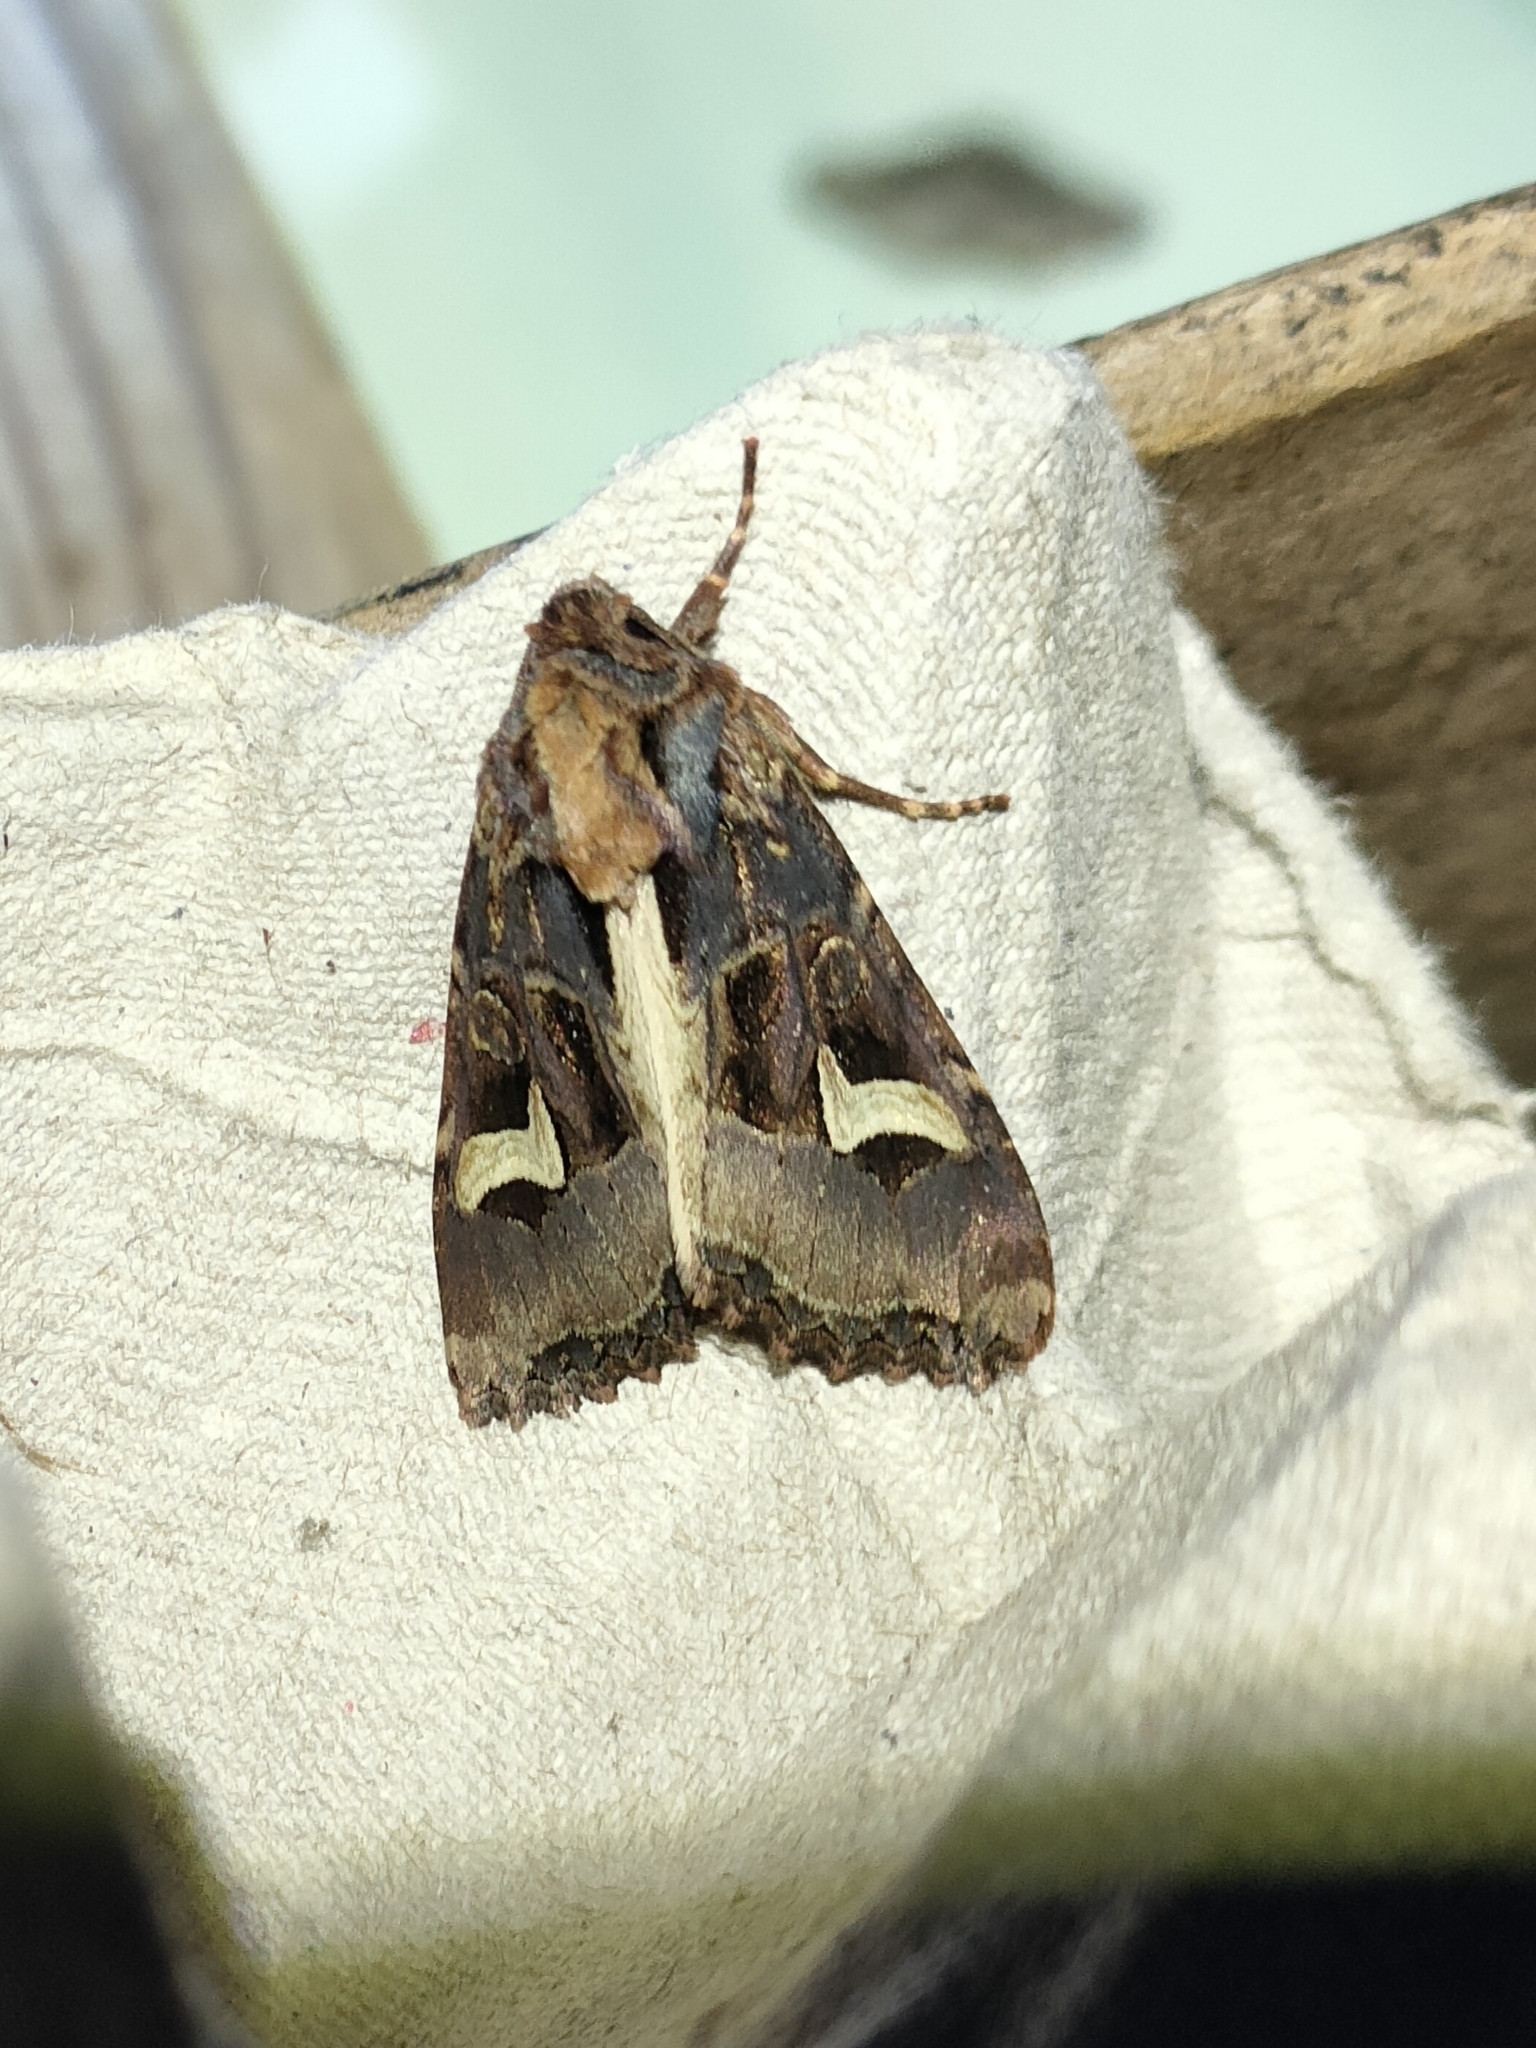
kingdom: Animalia
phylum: Arthropoda
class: Insecta
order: Lepidoptera
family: Noctuidae
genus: Trigonophora
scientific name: Trigonophora flammea
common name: Flame brocade
